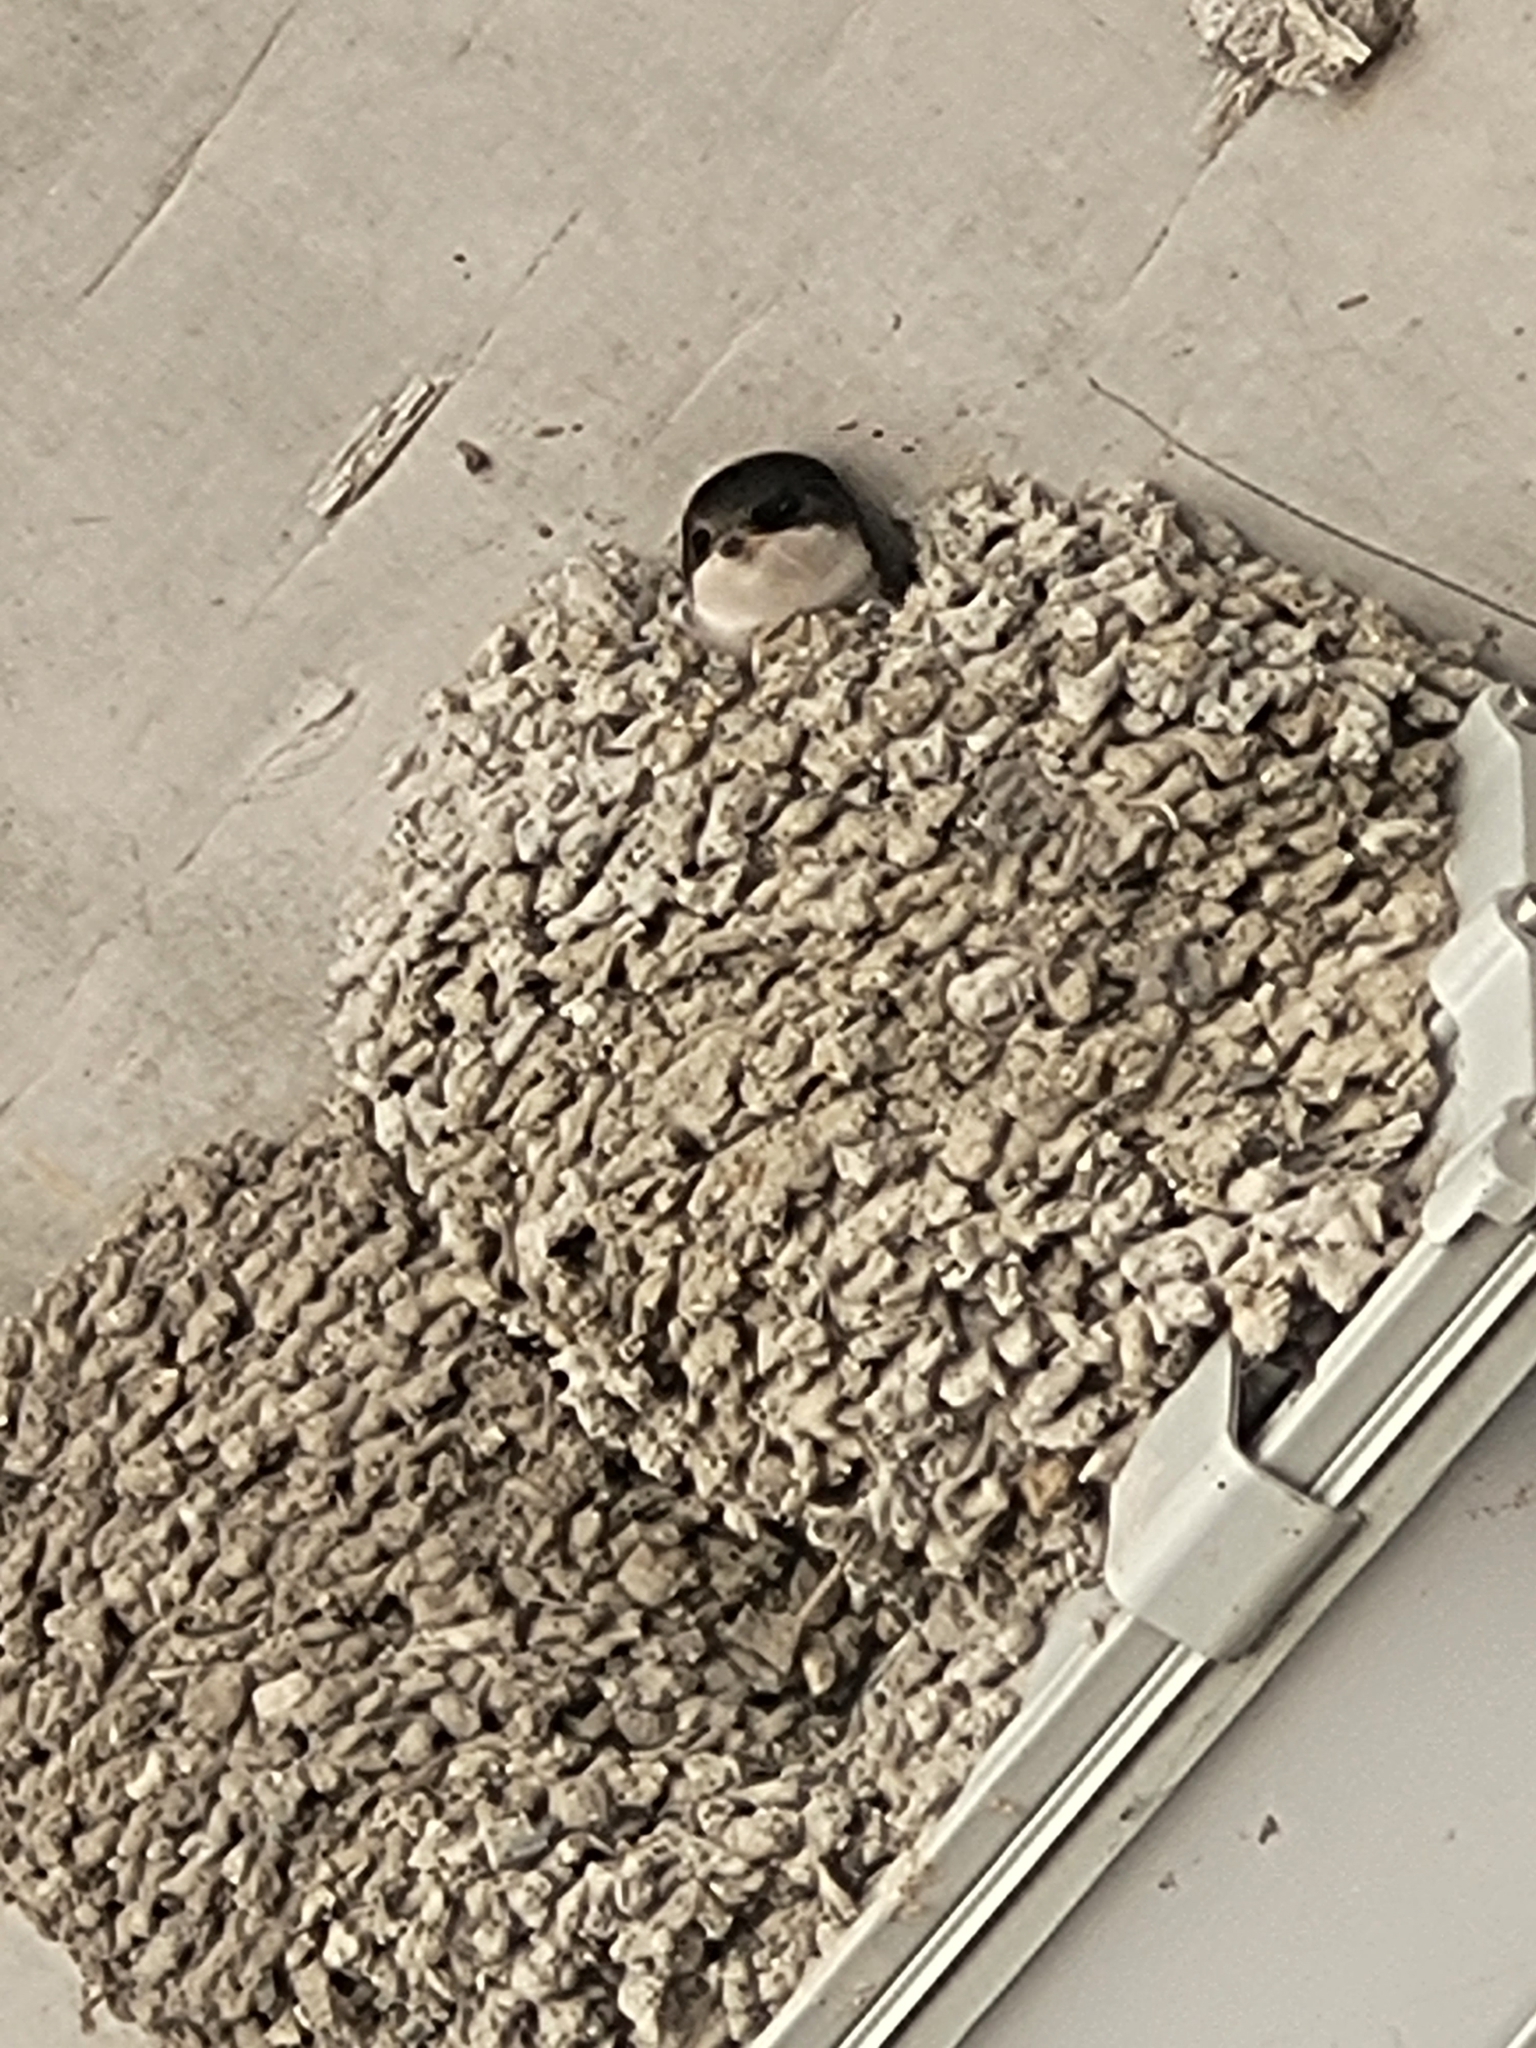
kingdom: Animalia
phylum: Chordata
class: Aves
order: Passeriformes
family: Hirundinidae
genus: Delichon
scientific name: Delichon urbicum
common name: Common house martin
